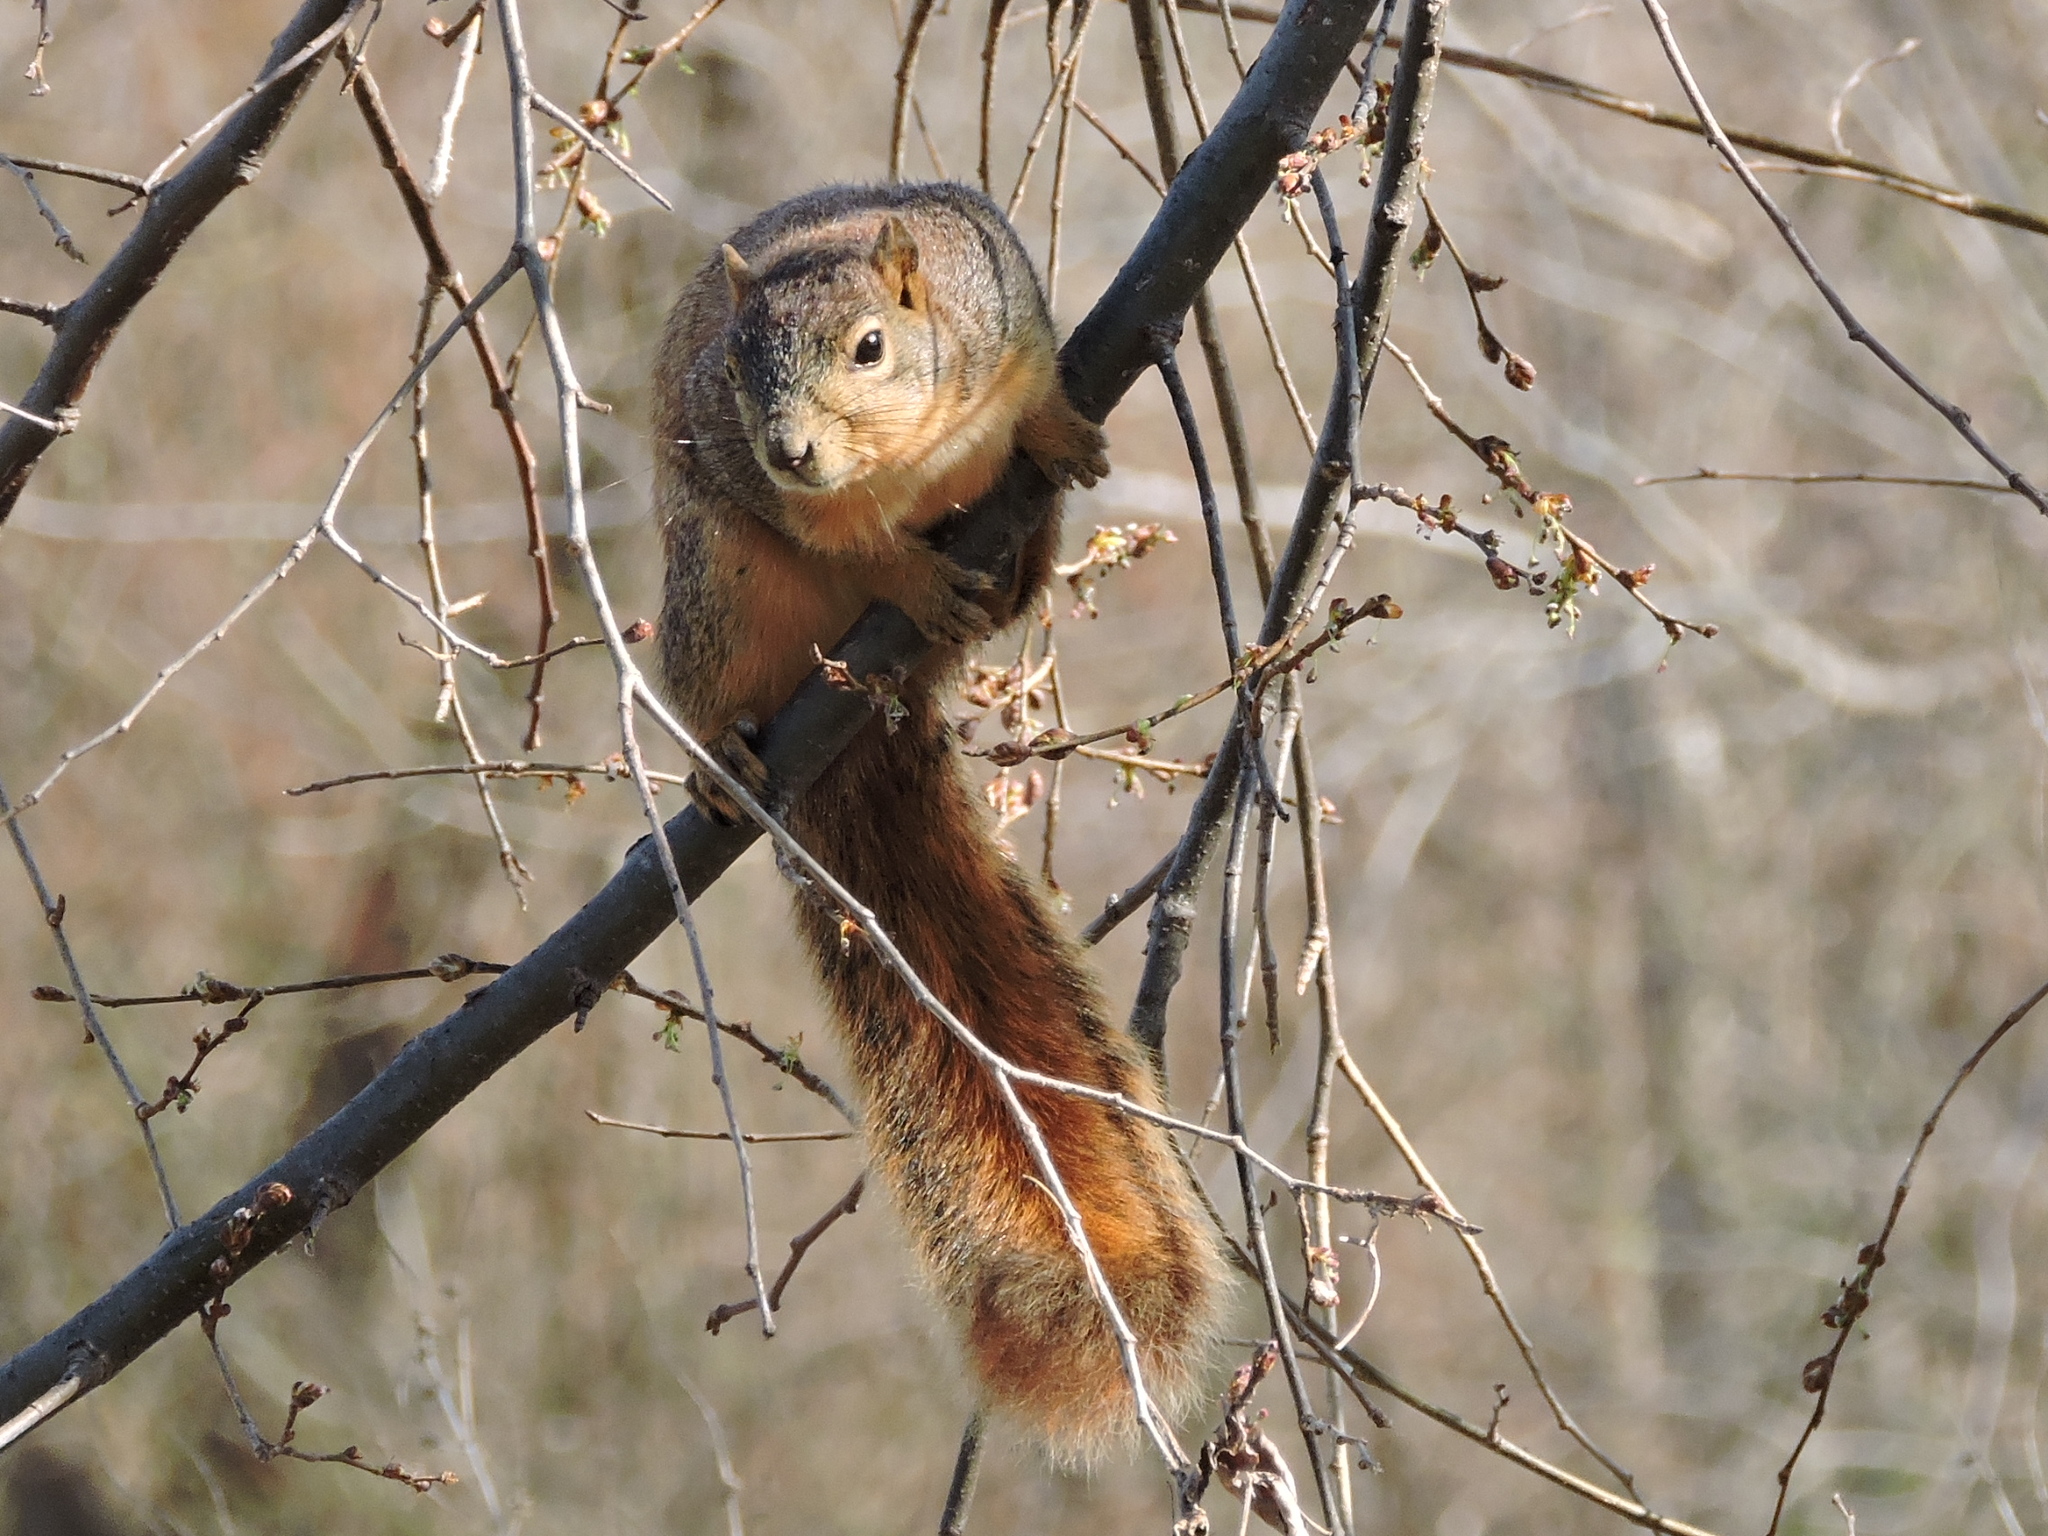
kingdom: Animalia
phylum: Chordata
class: Mammalia
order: Rodentia
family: Sciuridae
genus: Sciurus
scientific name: Sciurus niger
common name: Fox squirrel
